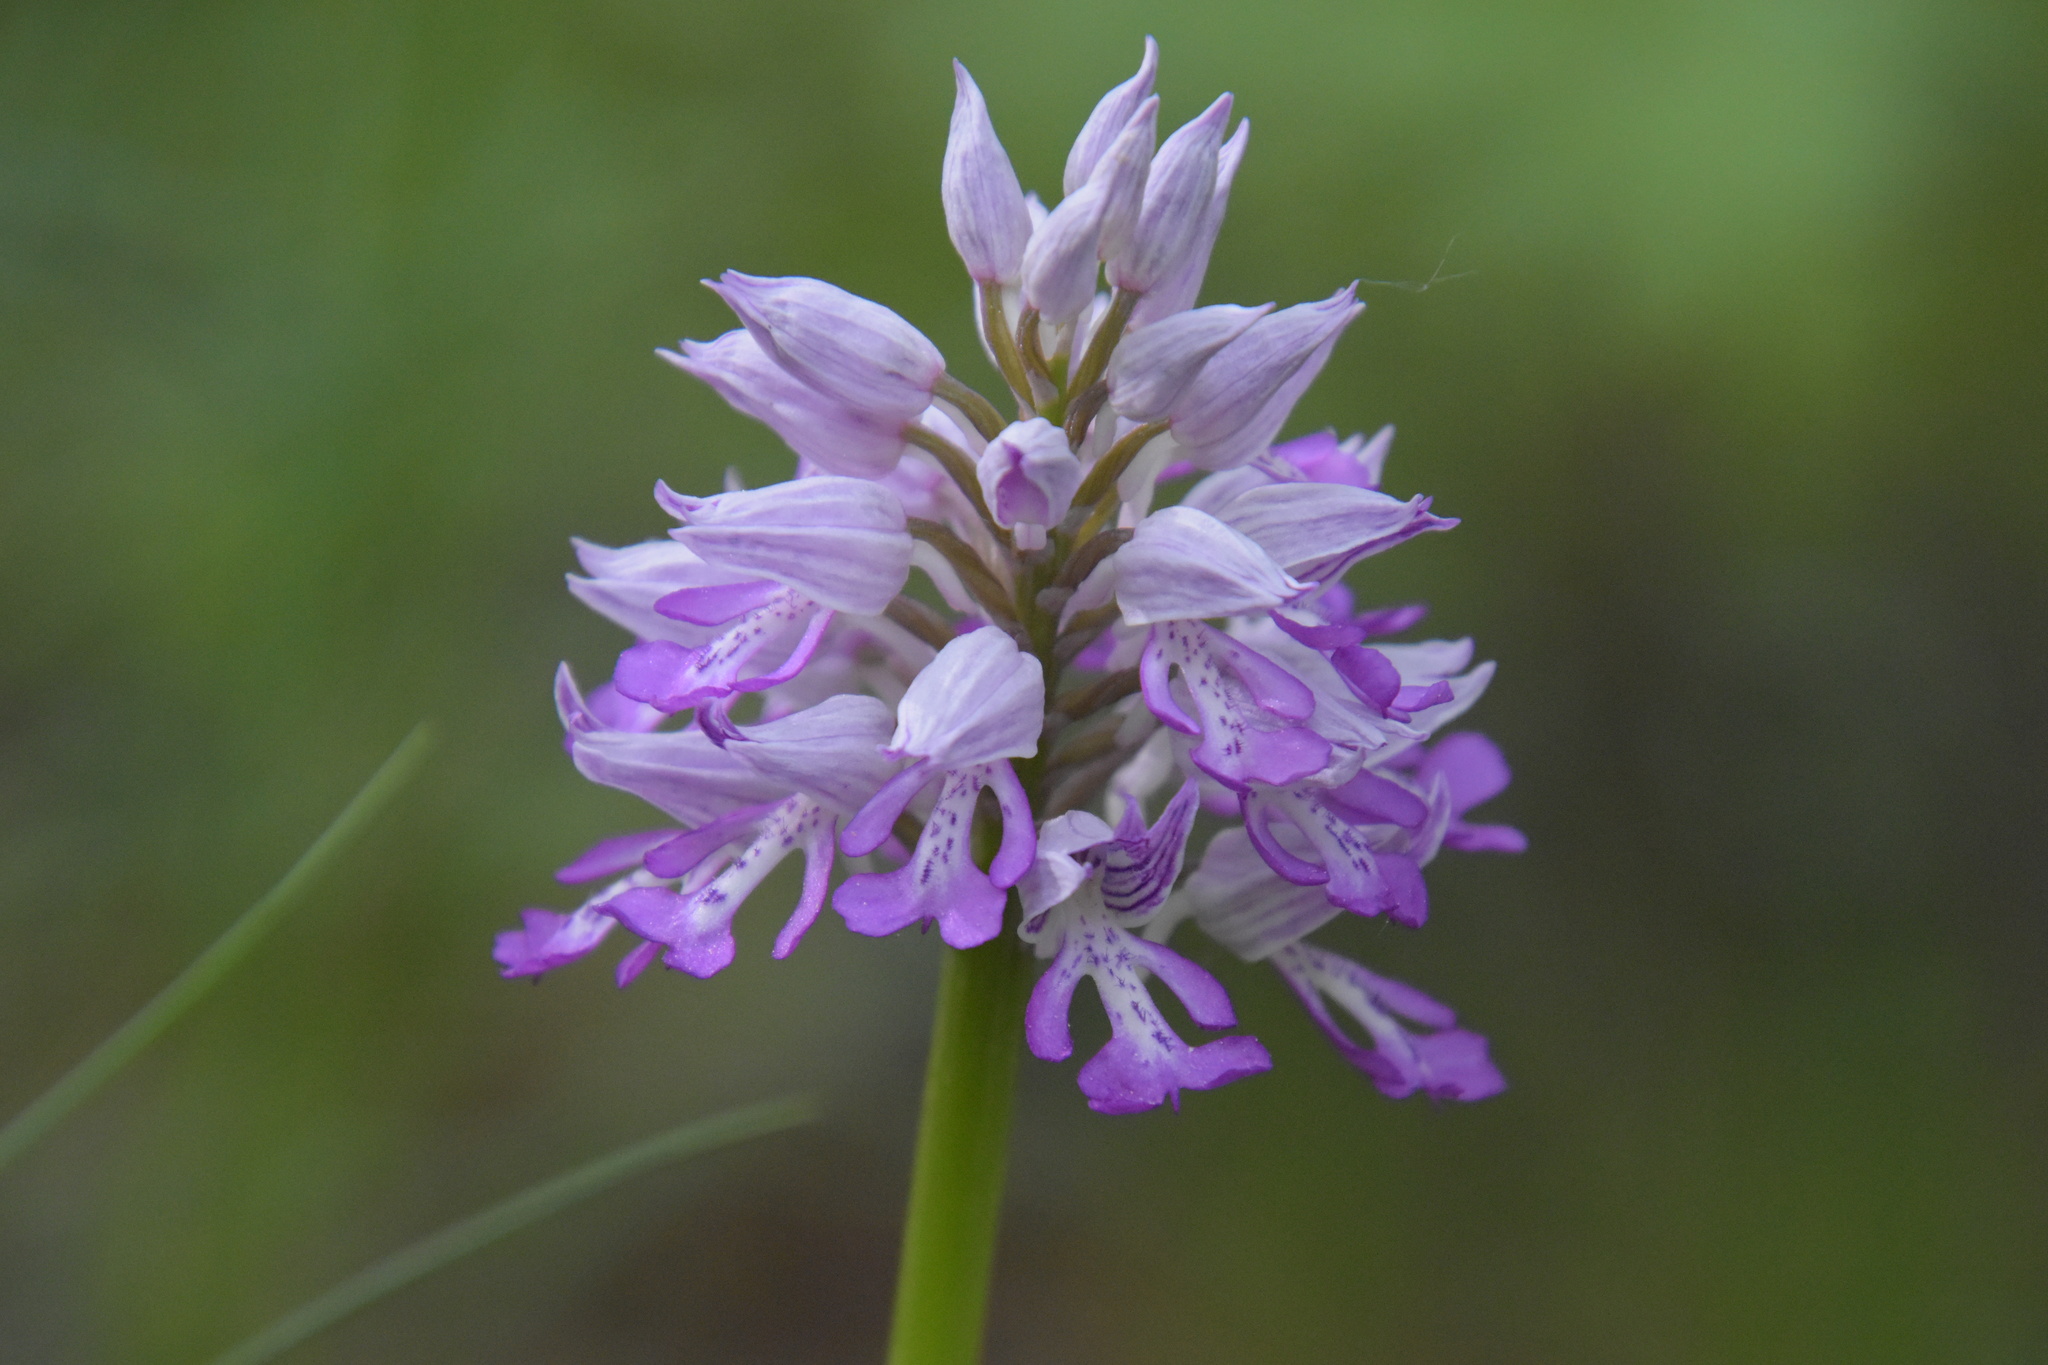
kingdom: Plantae
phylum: Tracheophyta
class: Liliopsida
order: Asparagales
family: Orchidaceae
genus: Orchis
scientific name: Orchis militaris
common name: Military orchid
